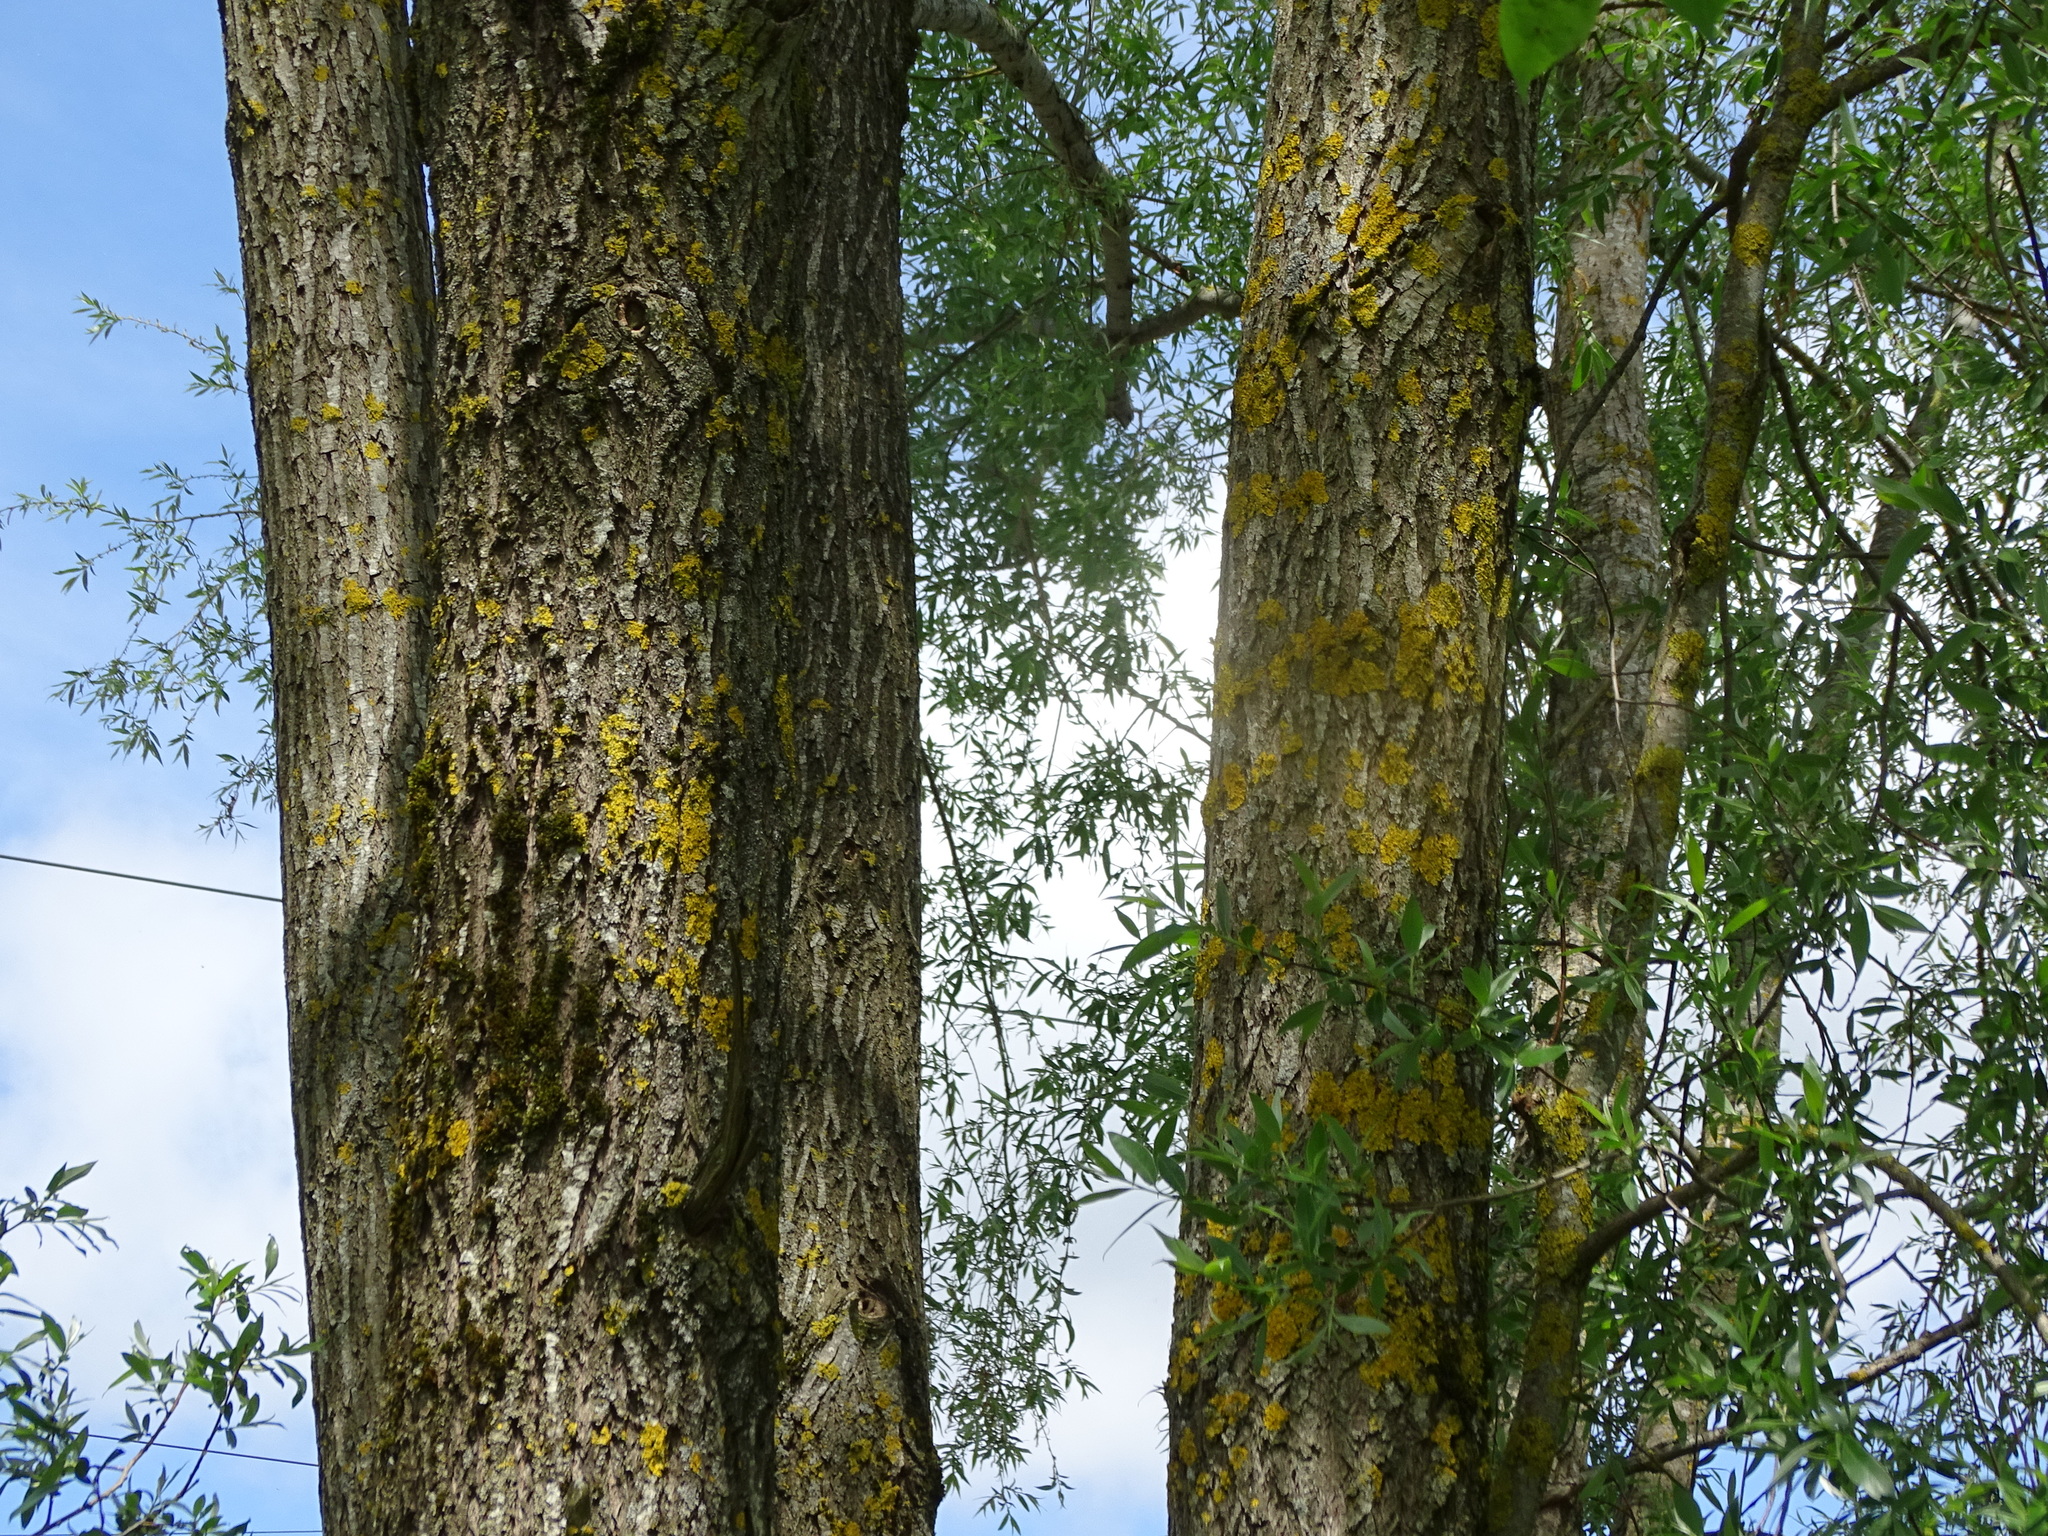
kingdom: Plantae
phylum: Tracheophyta
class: Magnoliopsida
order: Malpighiales
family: Salicaceae
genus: Salix
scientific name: Salix alba
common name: White willow
